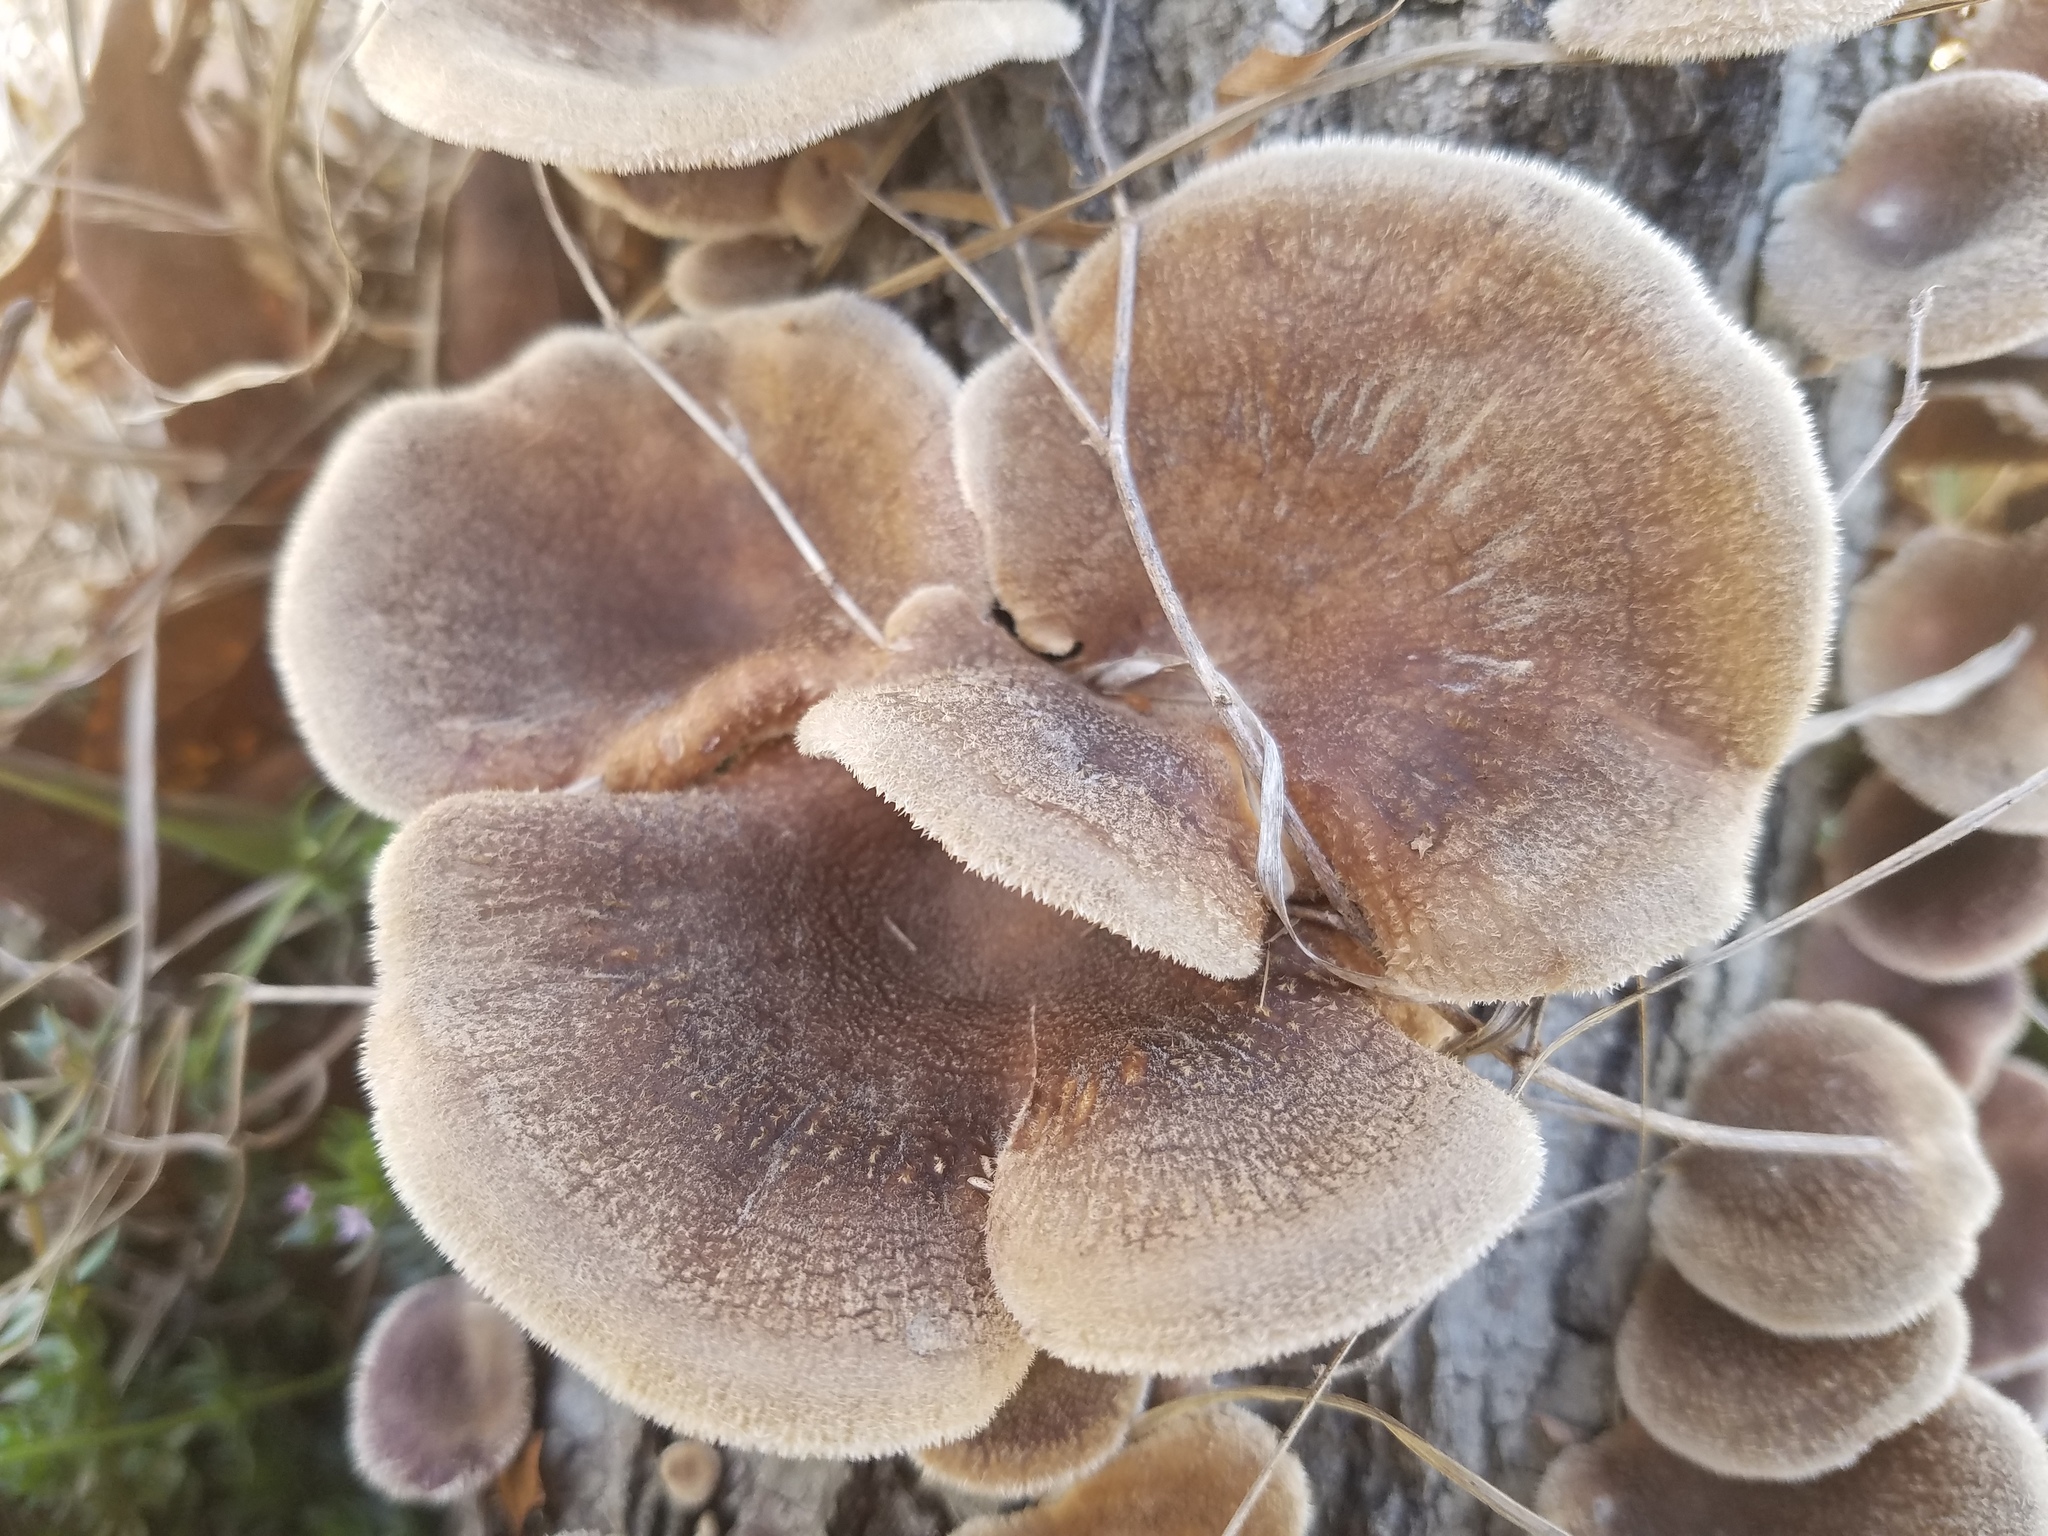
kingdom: Fungi
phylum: Basidiomycota
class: Agaricomycetes
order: Polyporales
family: Panaceae
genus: Panus
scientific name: Panus neostrigosus
